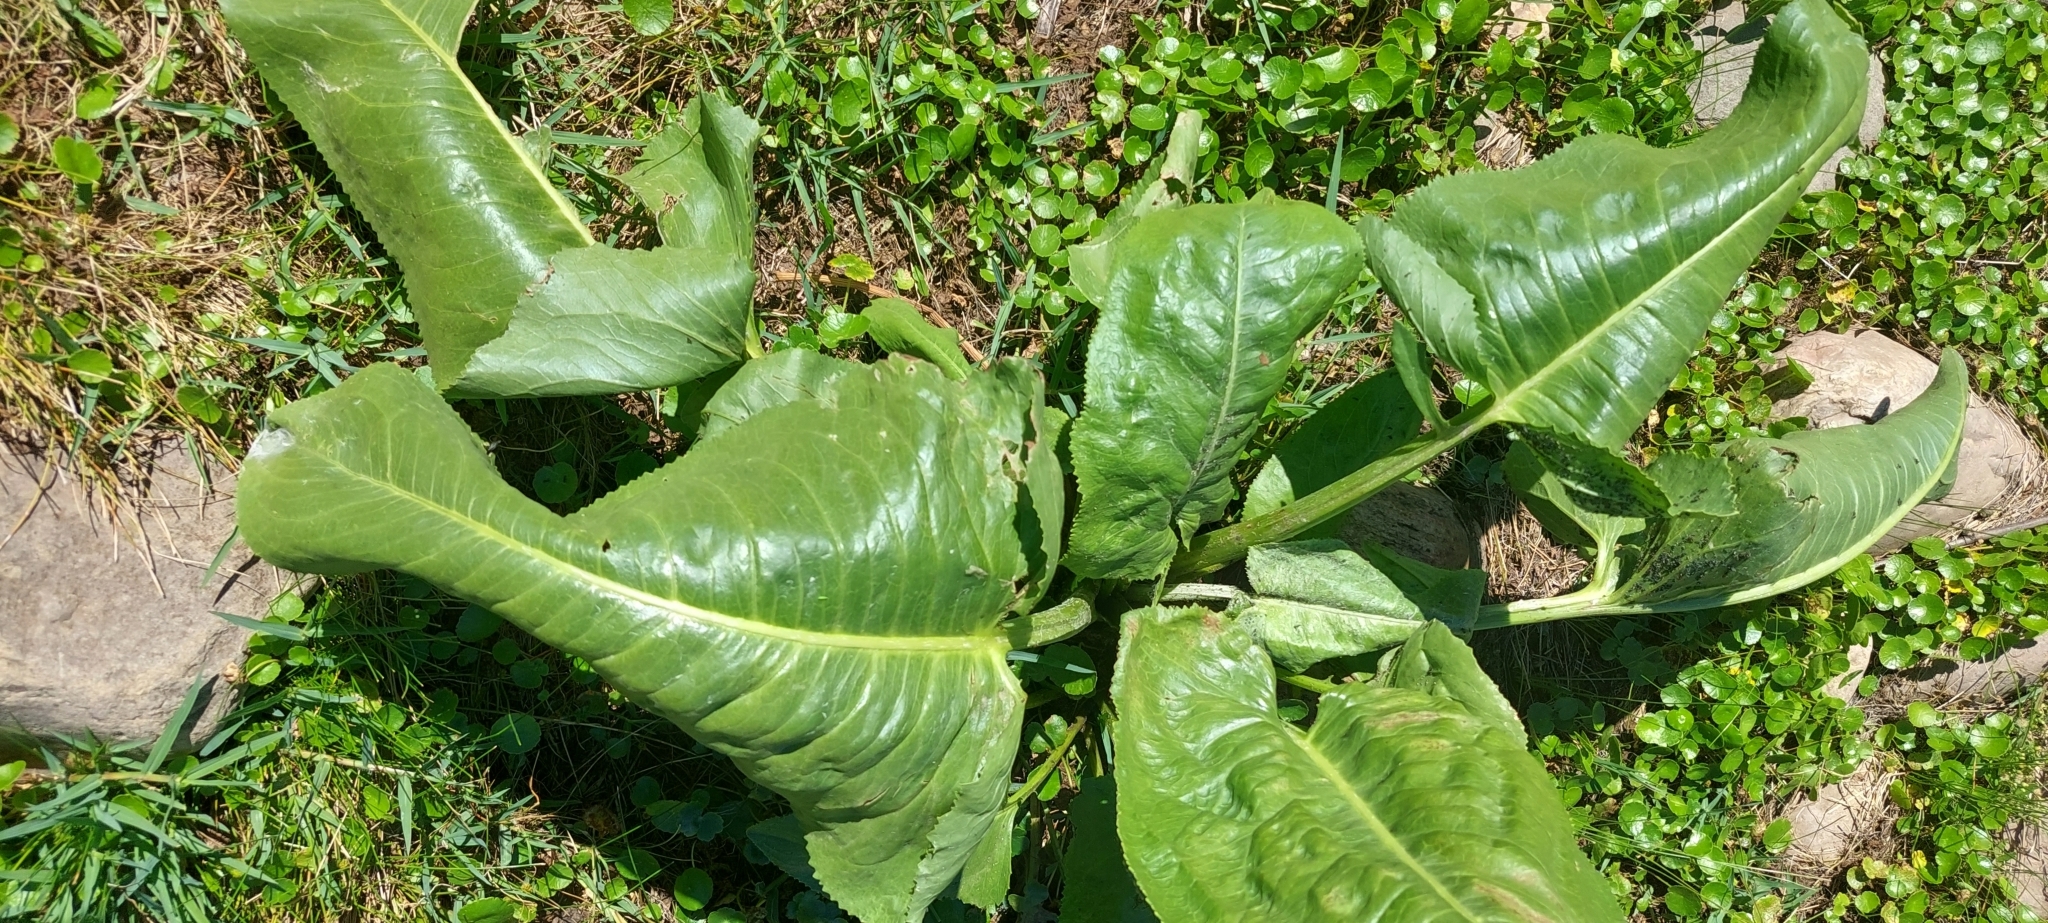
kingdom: Plantae
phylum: Tracheophyta
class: Magnoliopsida
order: Asterales
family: Asteraceae
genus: Senecio
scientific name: Senecio bonariensis
